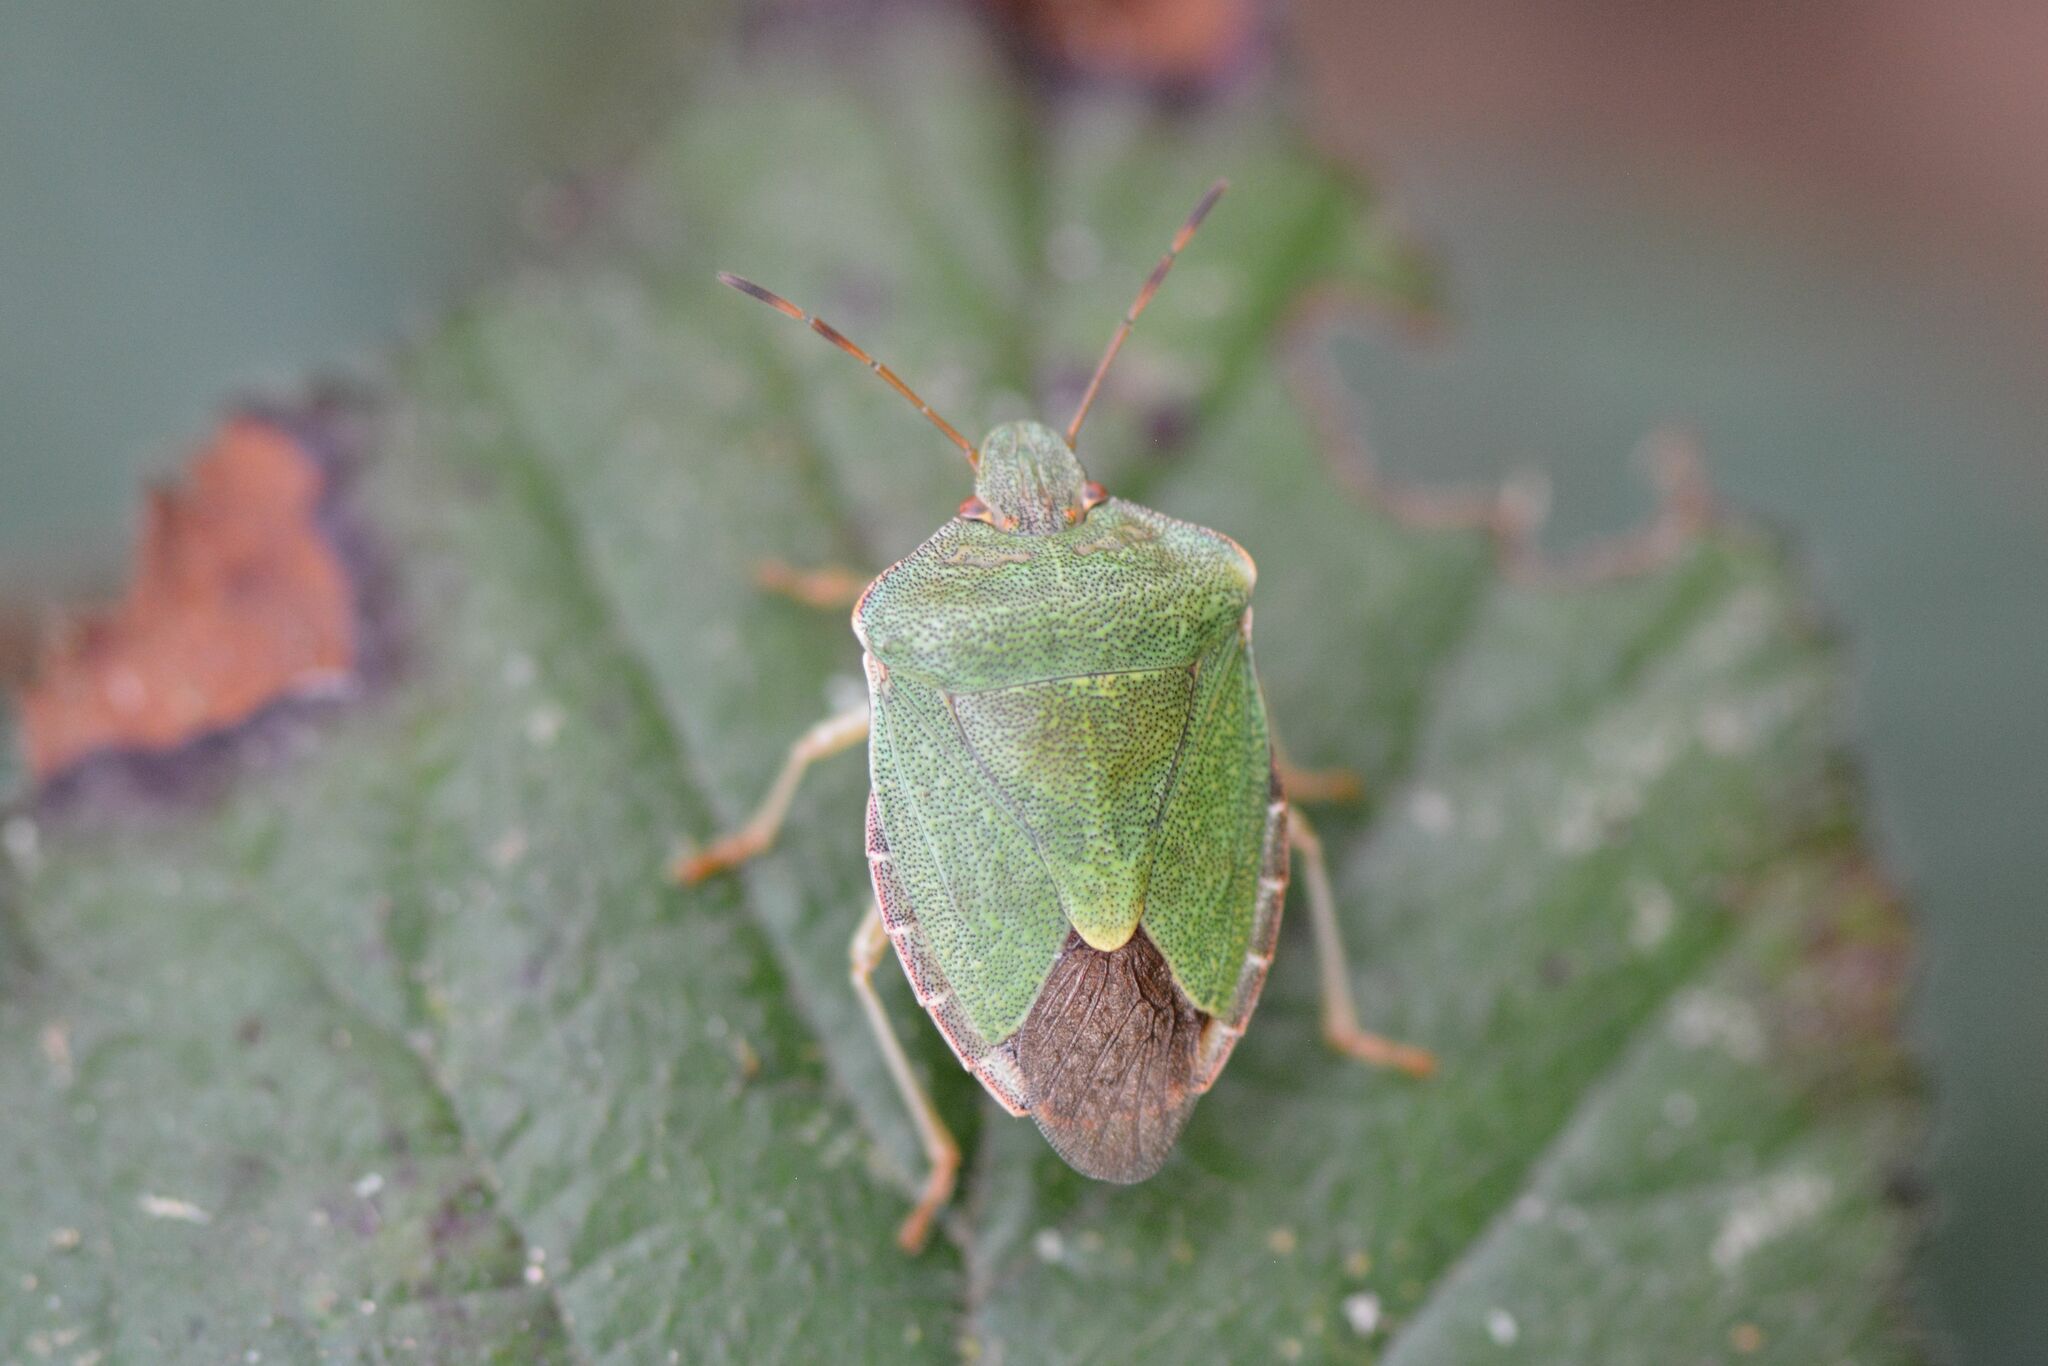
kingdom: Animalia
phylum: Arthropoda
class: Insecta
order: Hemiptera
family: Pentatomidae
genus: Palomena
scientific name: Palomena prasina
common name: Green shieldbug
